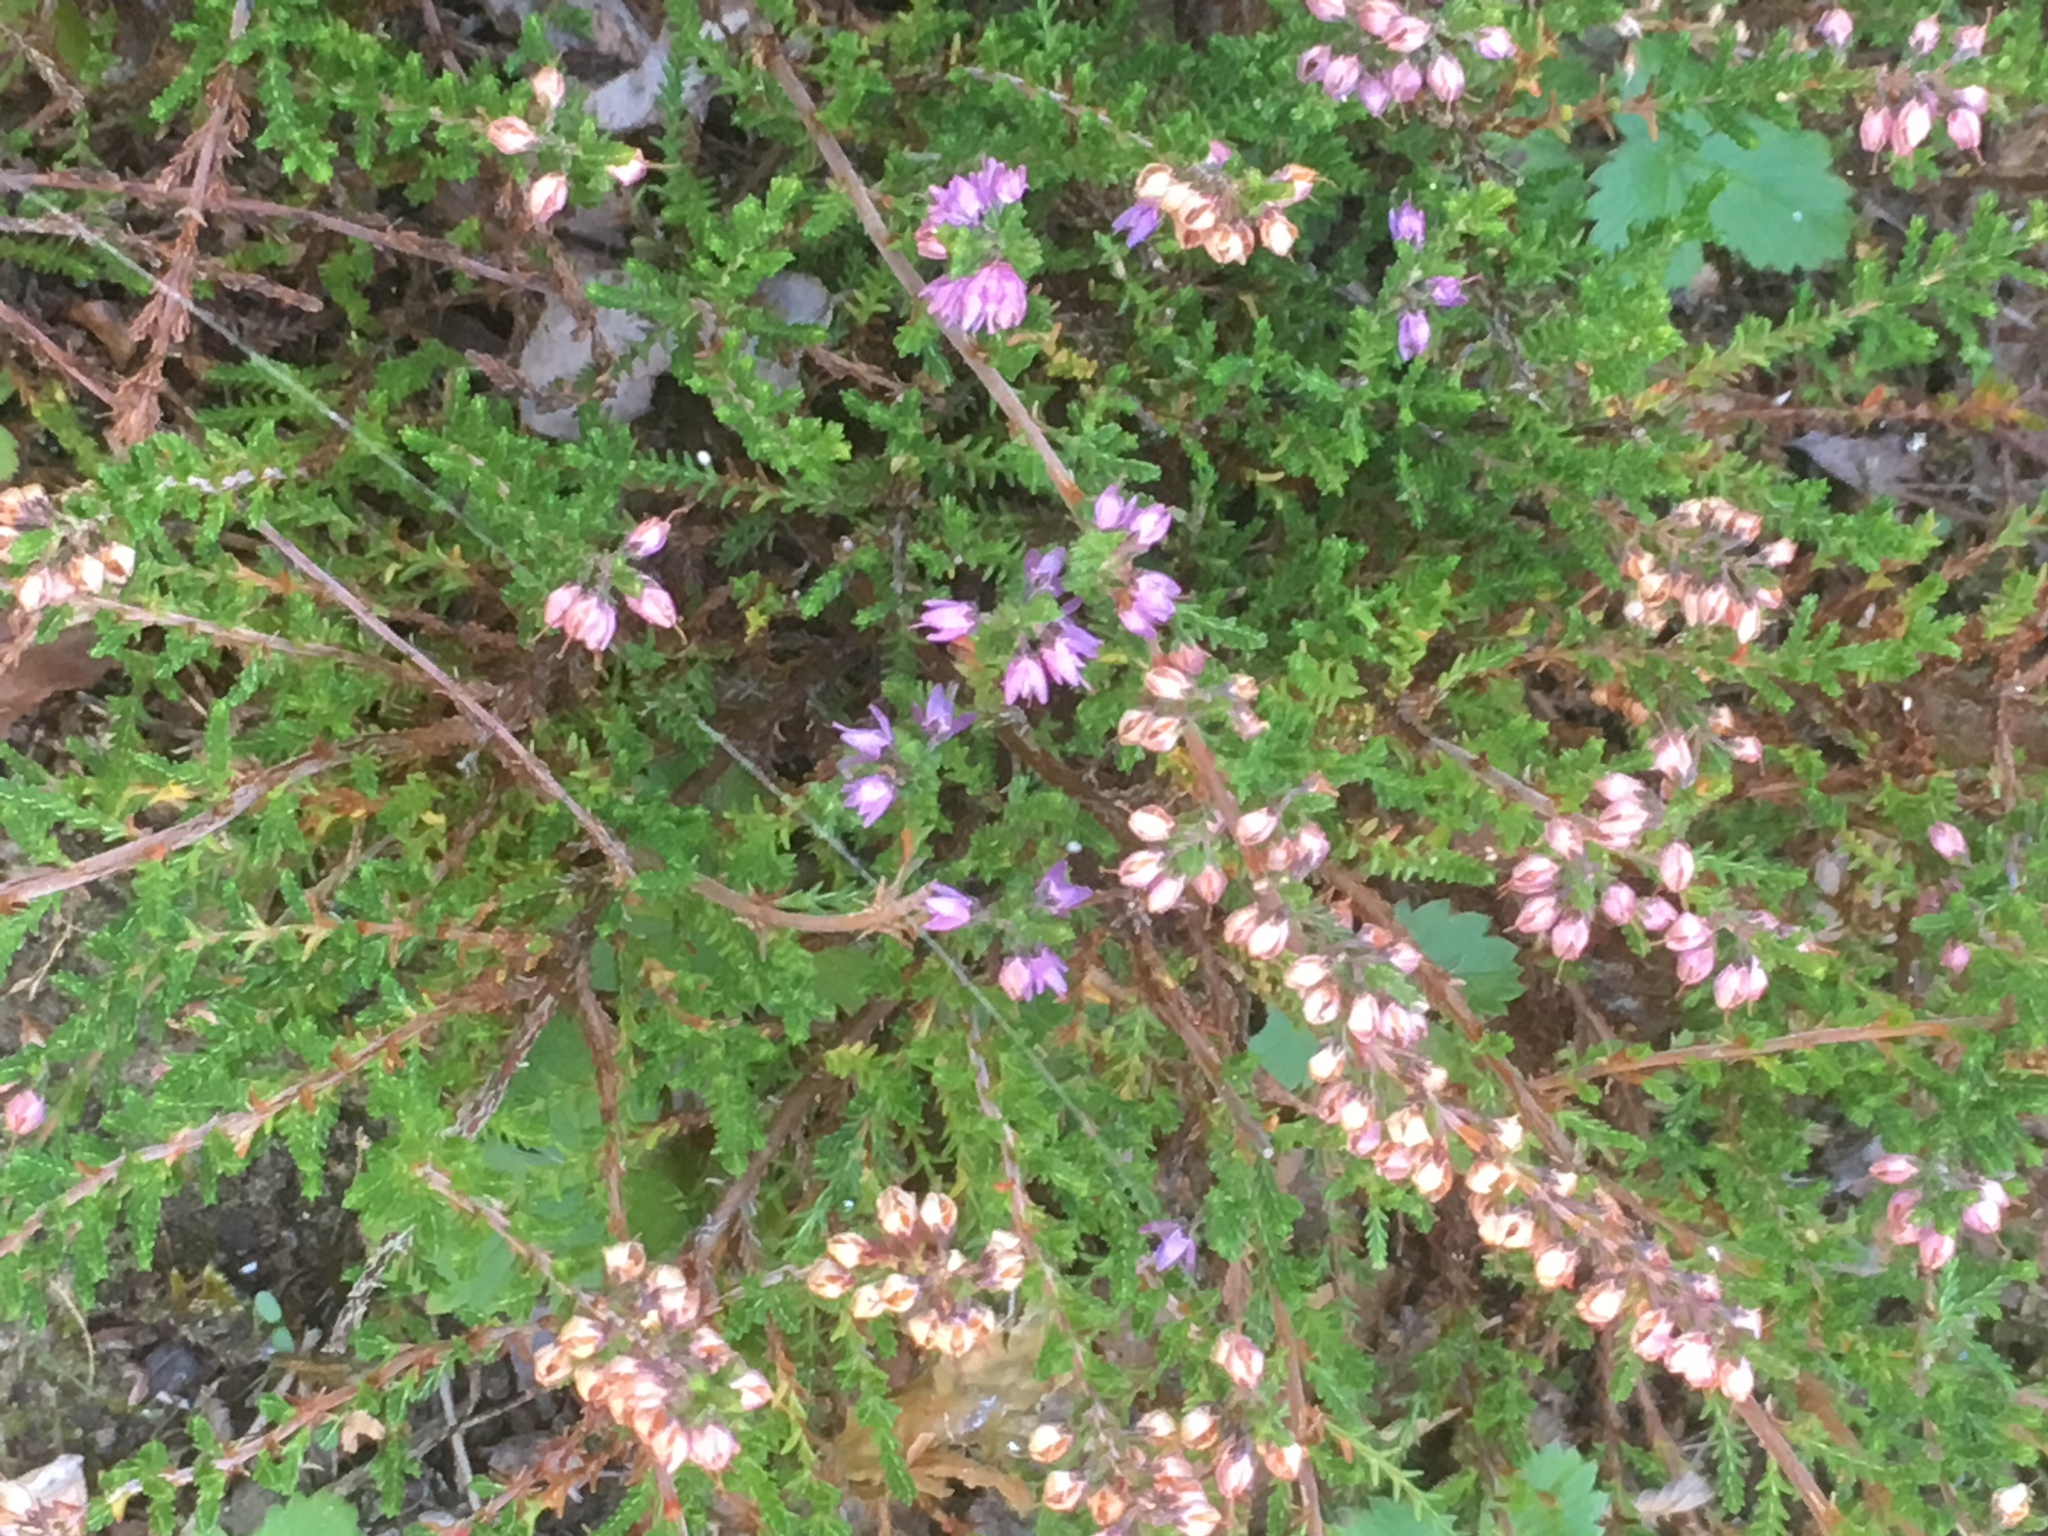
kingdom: Plantae
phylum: Tracheophyta
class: Magnoliopsida
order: Ericales
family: Ericaceae
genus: Calluna
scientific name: Calluna vulgaris
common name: Heather
